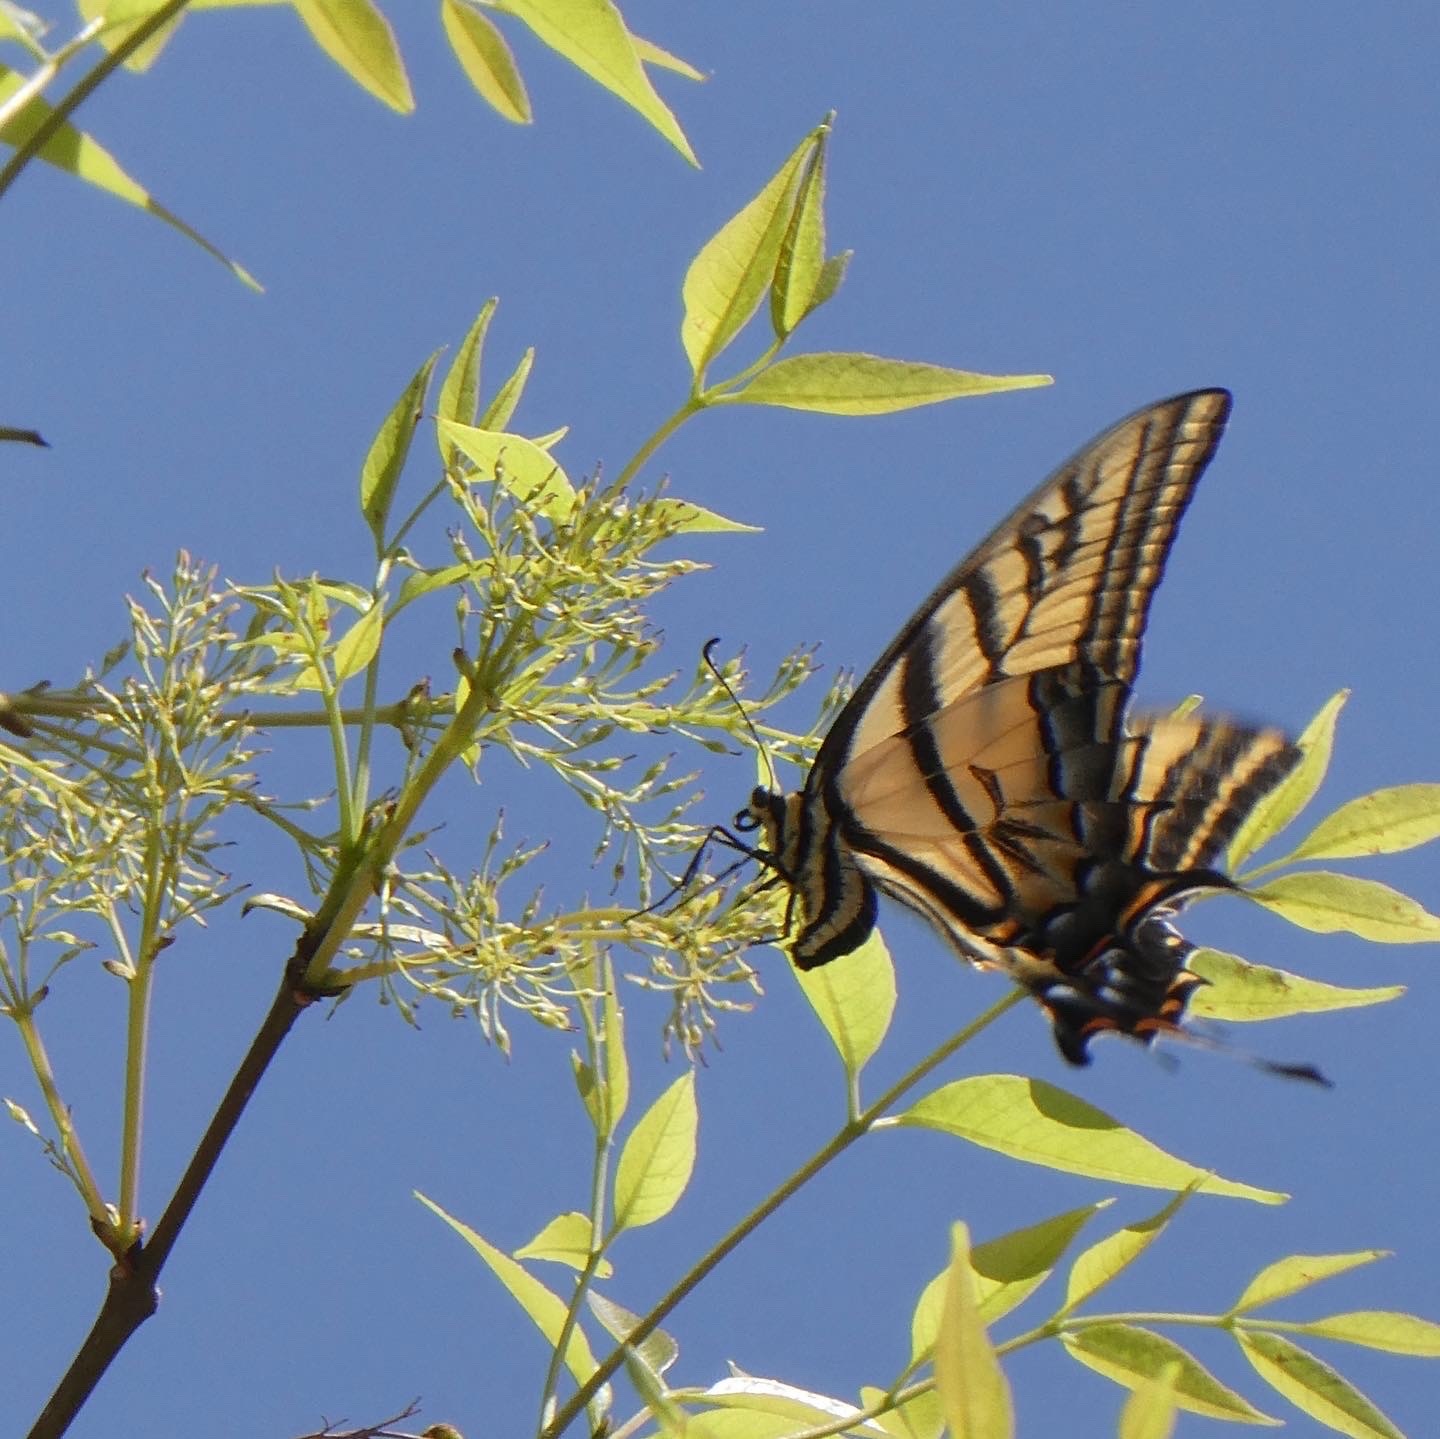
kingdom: Animalia
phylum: Arthropoda
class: Insecta
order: Lepidoptera
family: Papilionidae
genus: Papilio
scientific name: Papilio multicaudata
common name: Two-tailed tiger swallowtail
